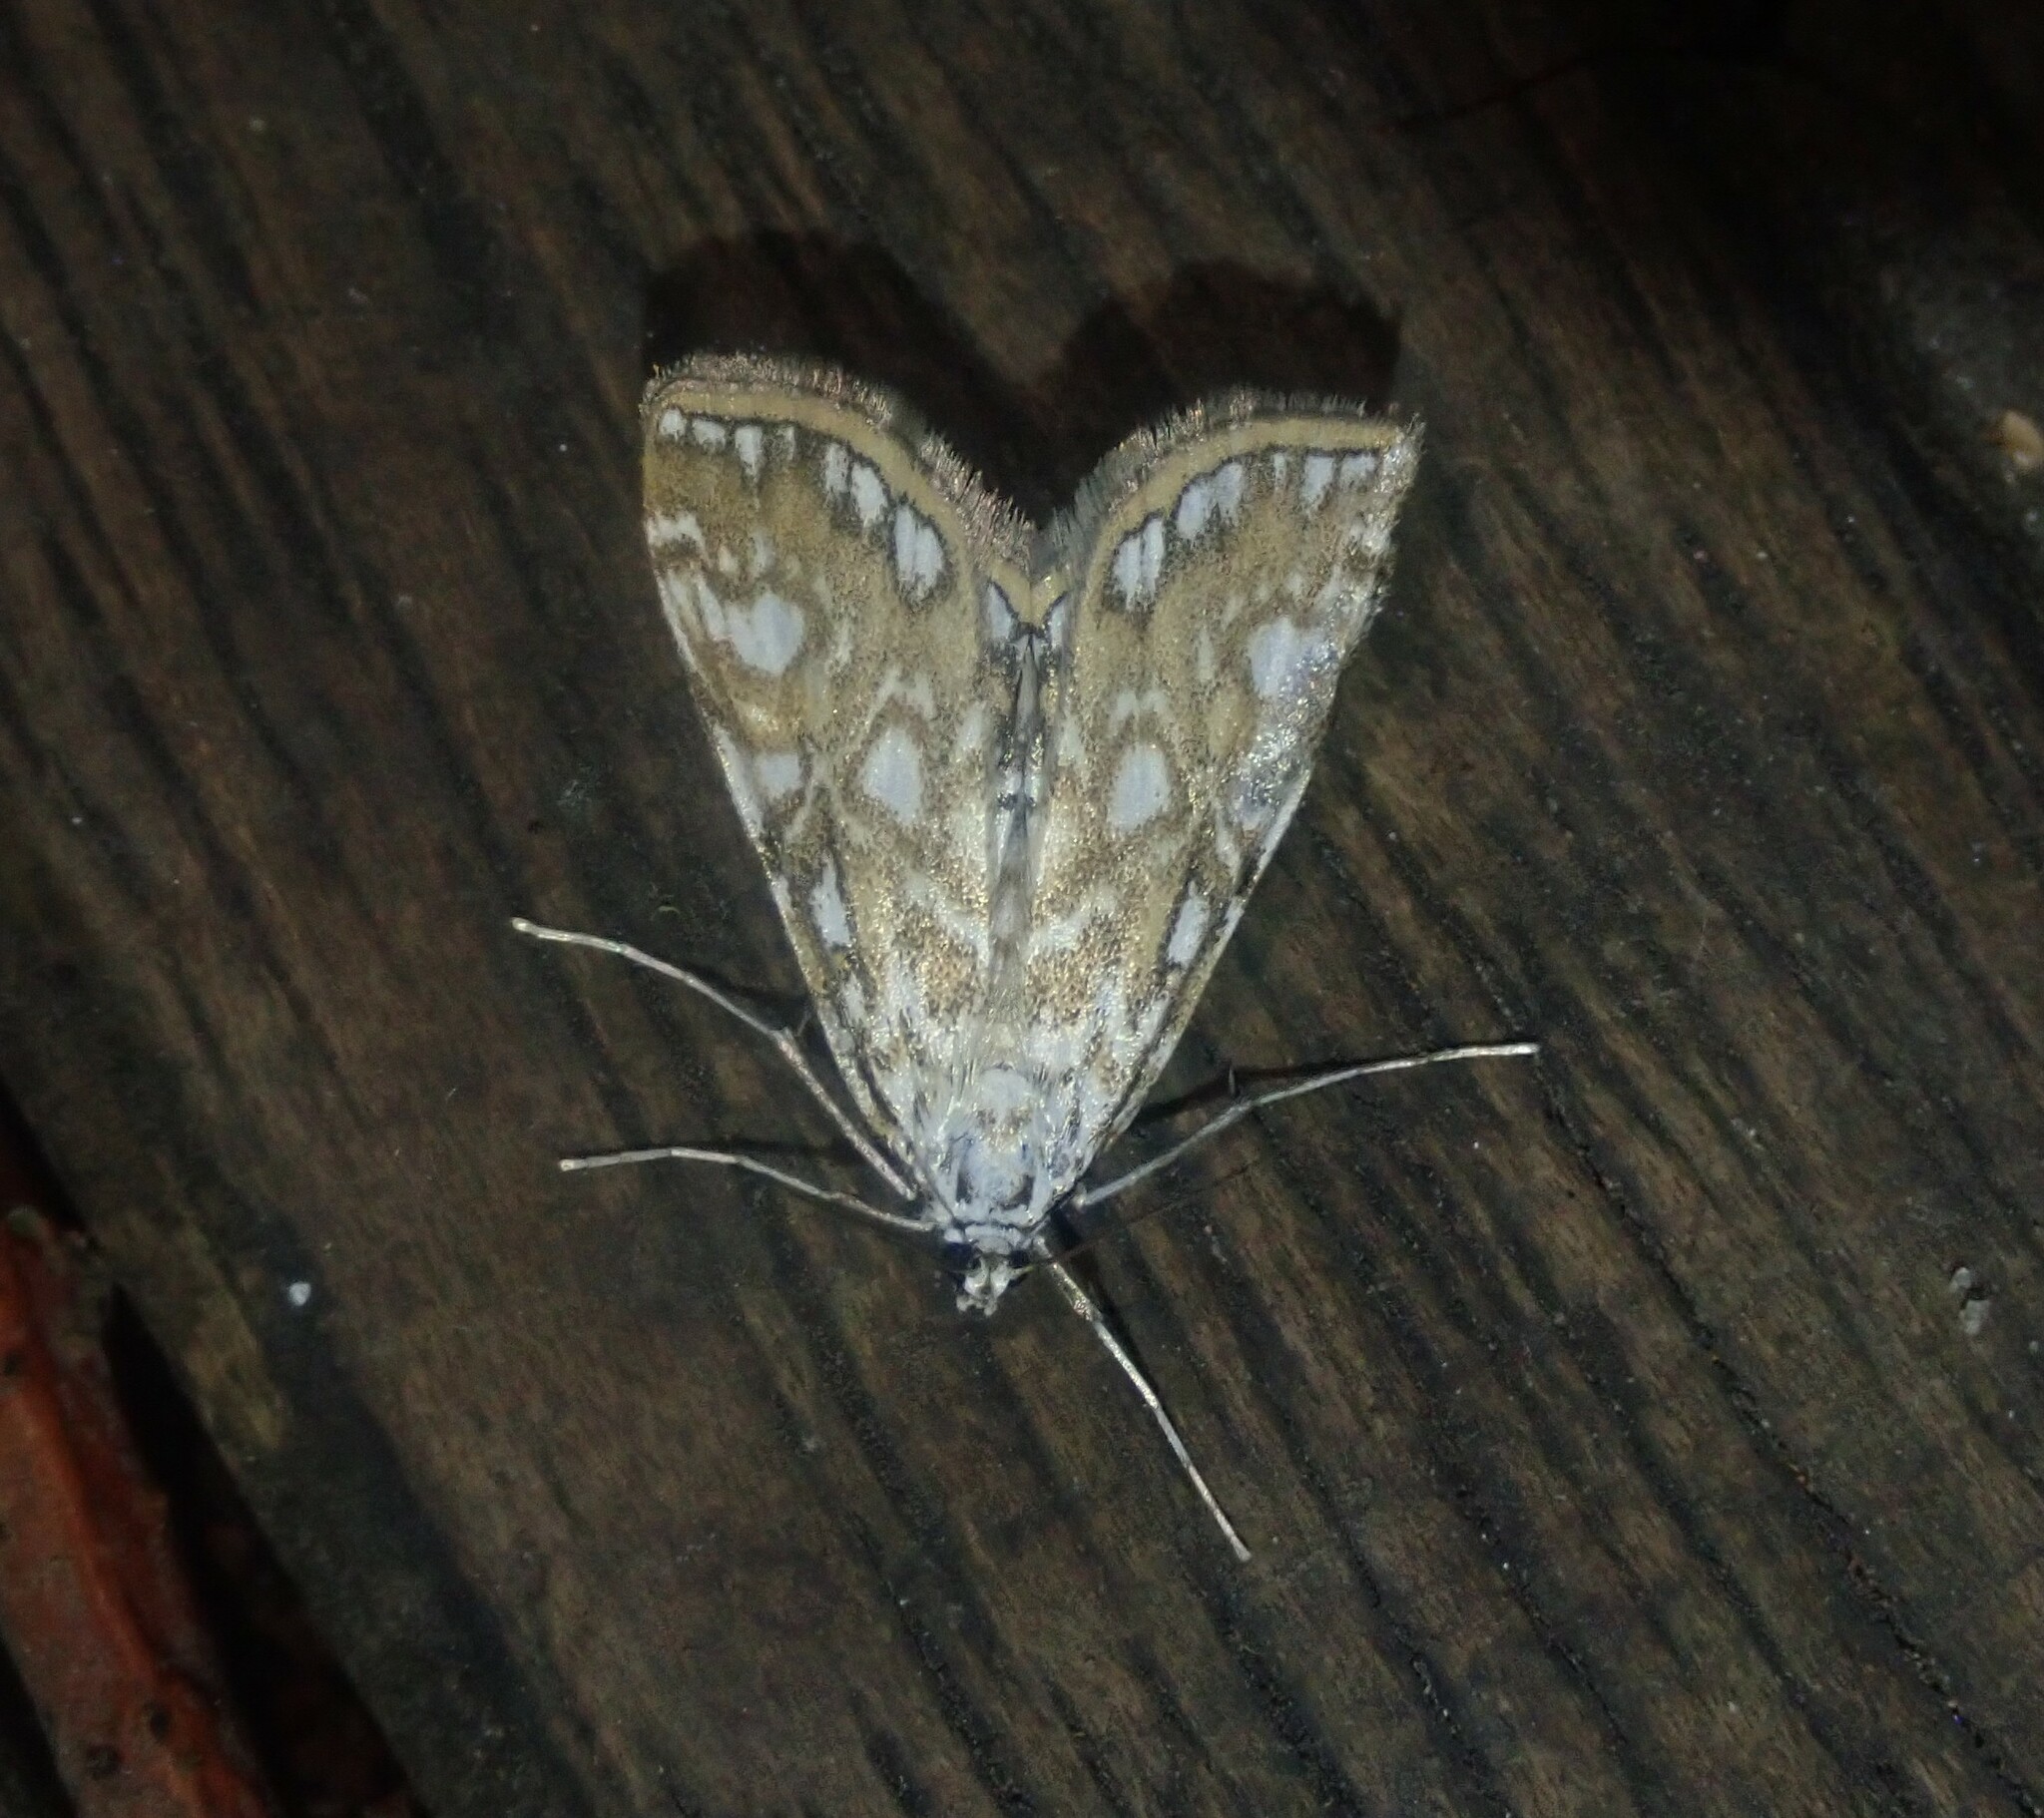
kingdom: Animalia
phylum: Arthropoda
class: Insecta
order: Lepidoptera
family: Crambidae
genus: Elophila
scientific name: Elophila nymphaeata
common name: Brown china-mark
